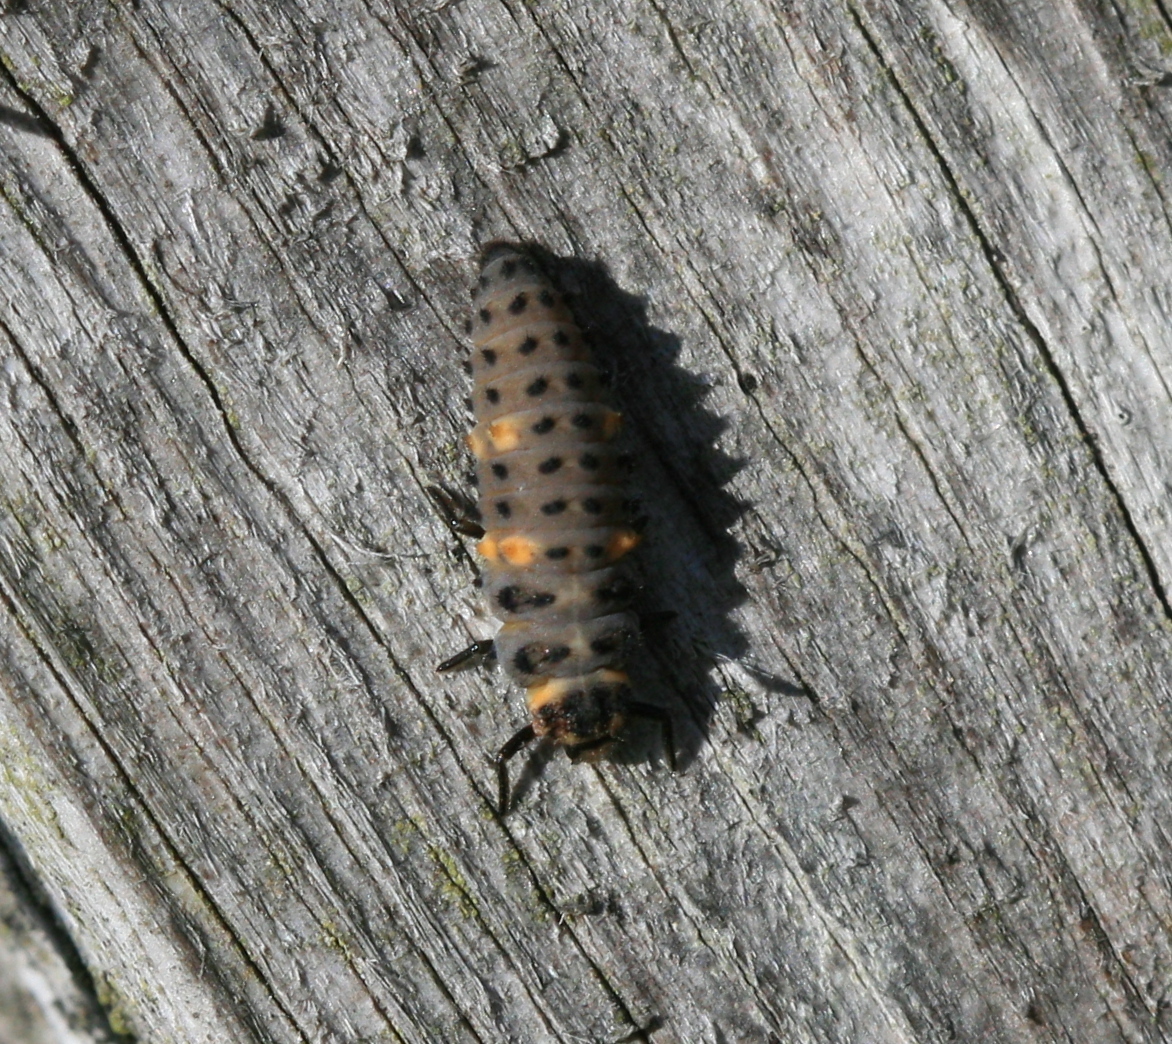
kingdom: Animalia
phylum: Arthropoda
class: Insecta
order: Coleoptera
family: Coccinellidae
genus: Coccinella
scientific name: Coccinella septempunctata
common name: Sevenspotted lady beetle
